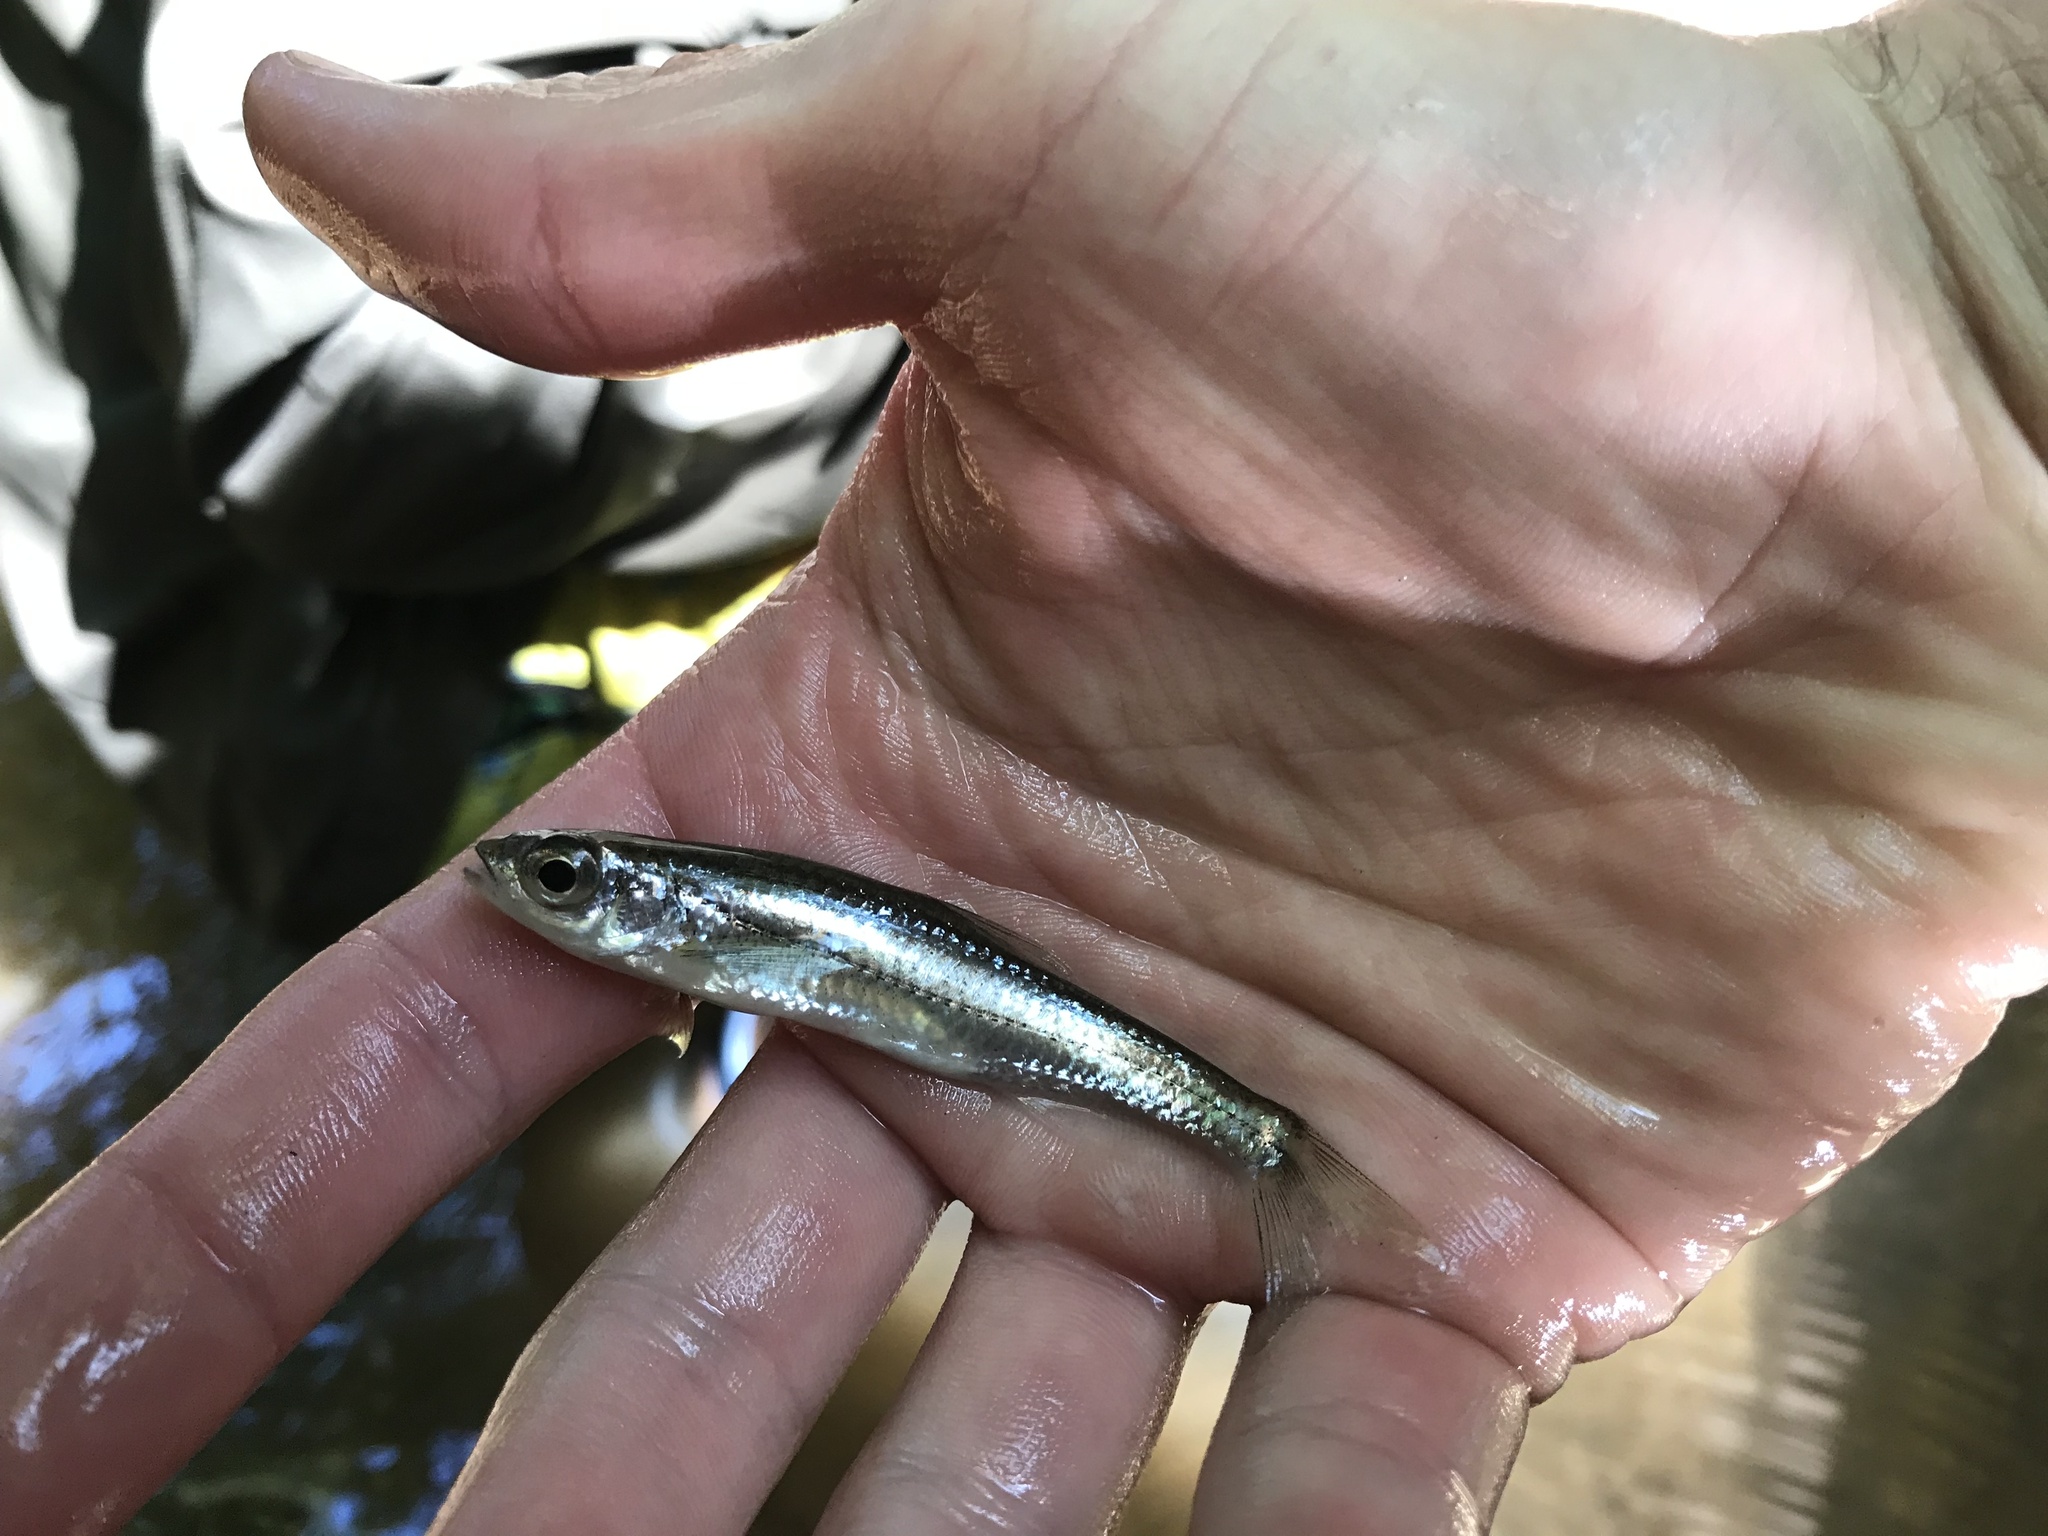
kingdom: Animalia
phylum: Chordata
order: Cypriniformes
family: Cyprinidae
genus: Notropis
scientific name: Notropis telescopus
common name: Telescope shiner
